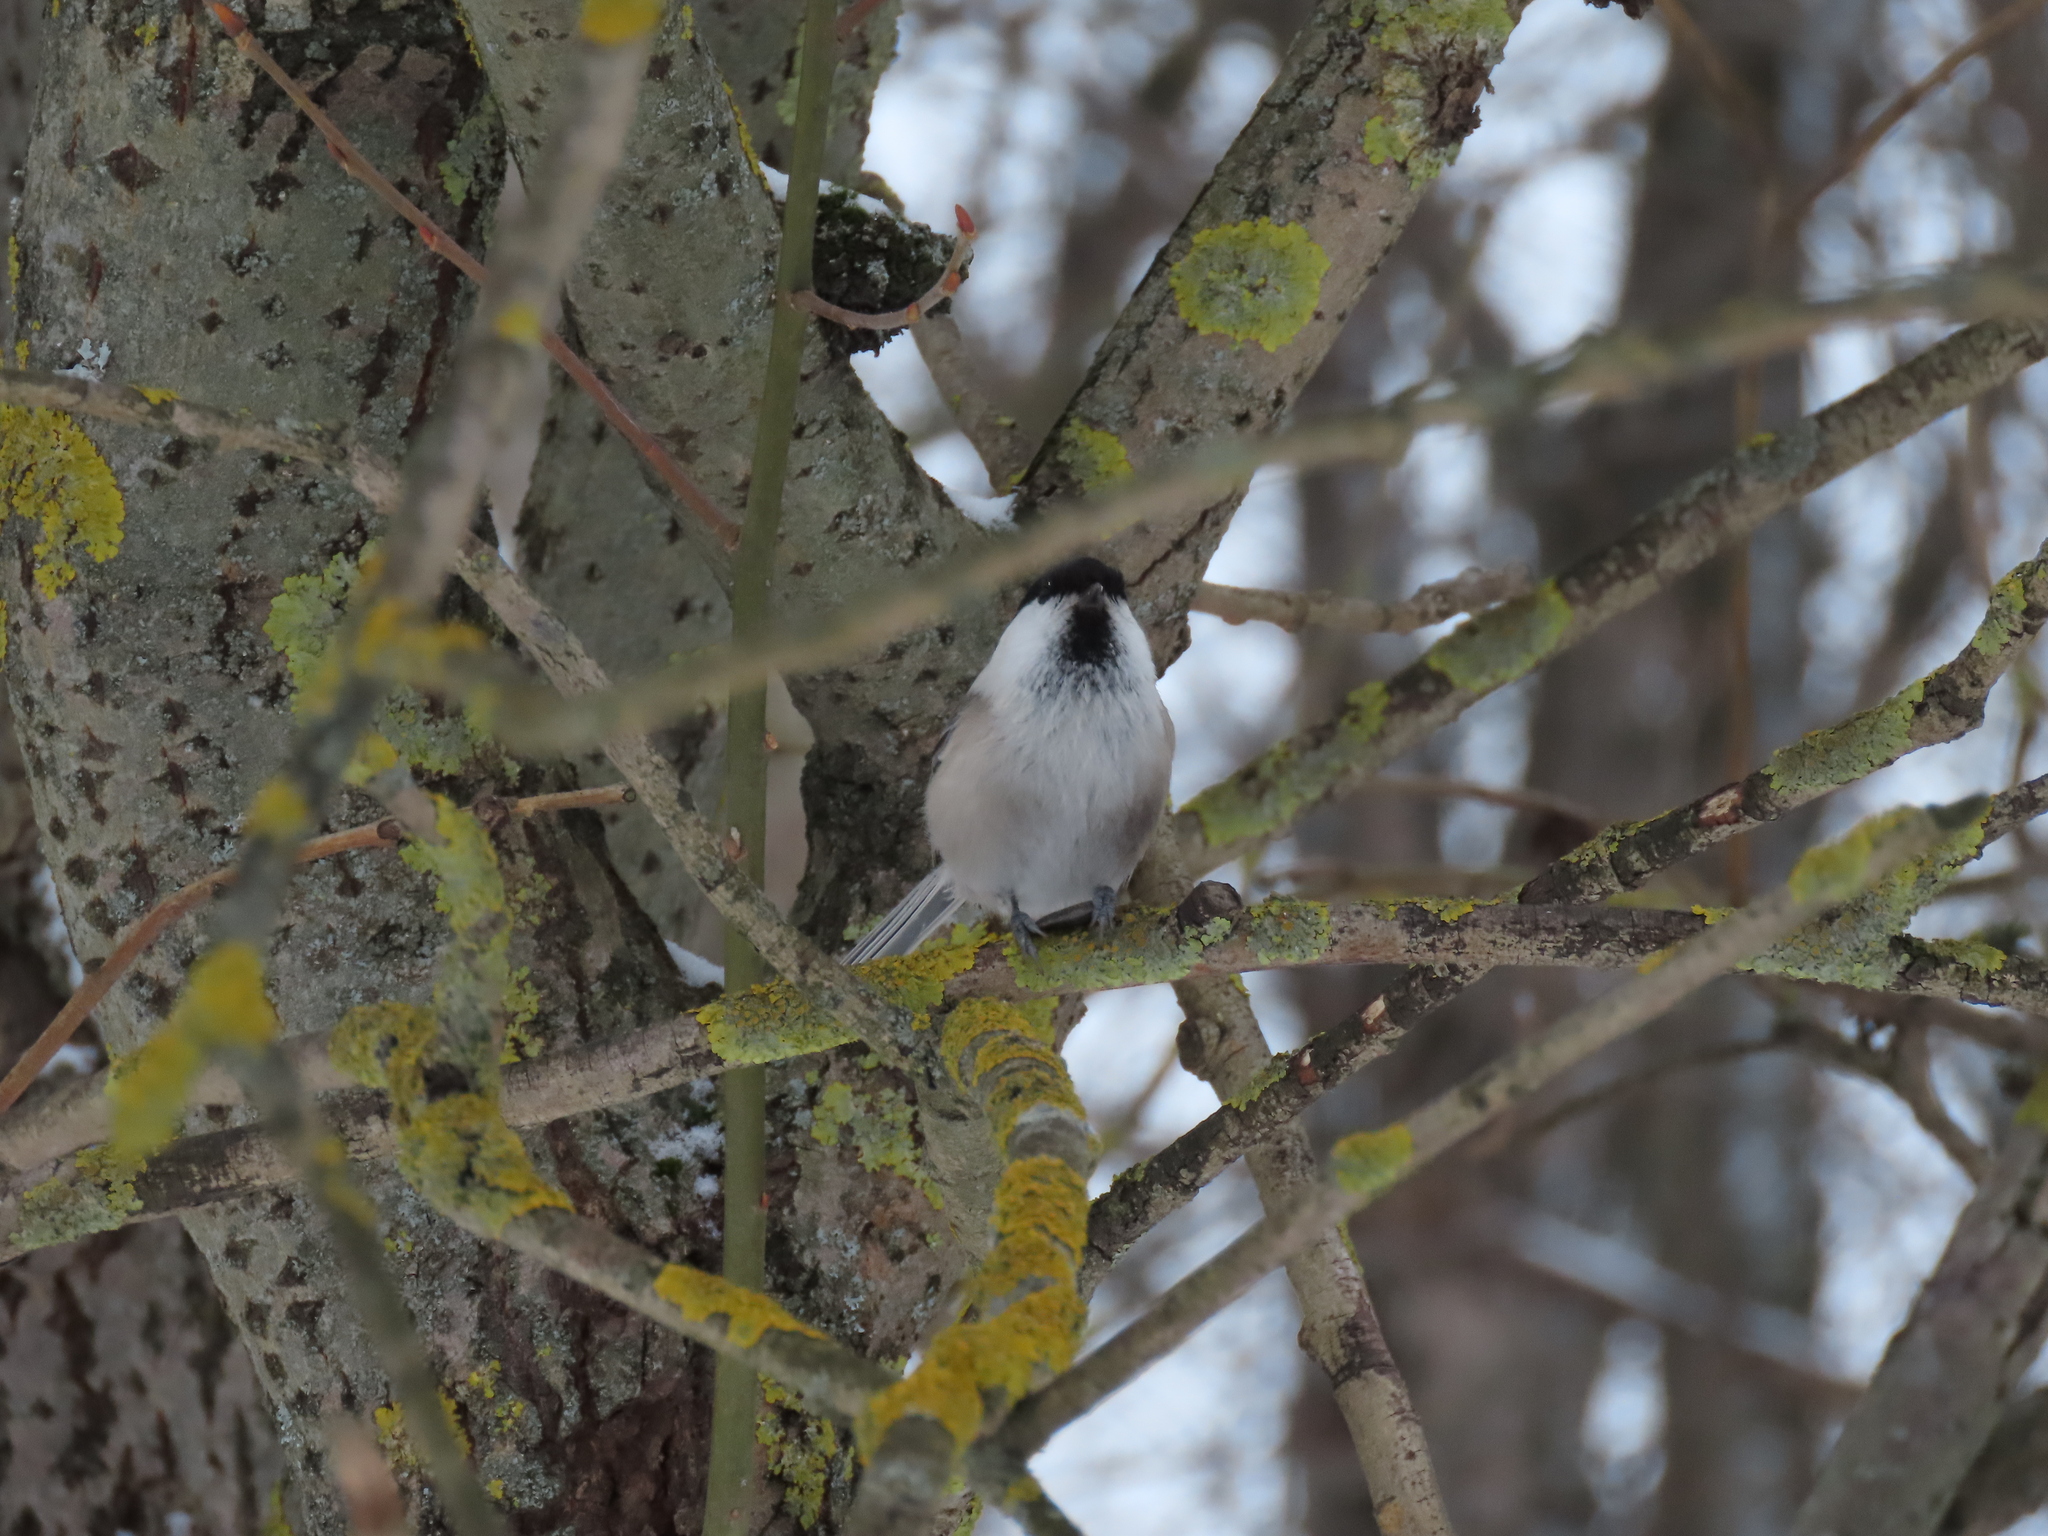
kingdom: Animalia
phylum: Chordata
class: Aves
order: Passeriformes
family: Paridae
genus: Poecile
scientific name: Poecile montanus
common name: Willow tit
